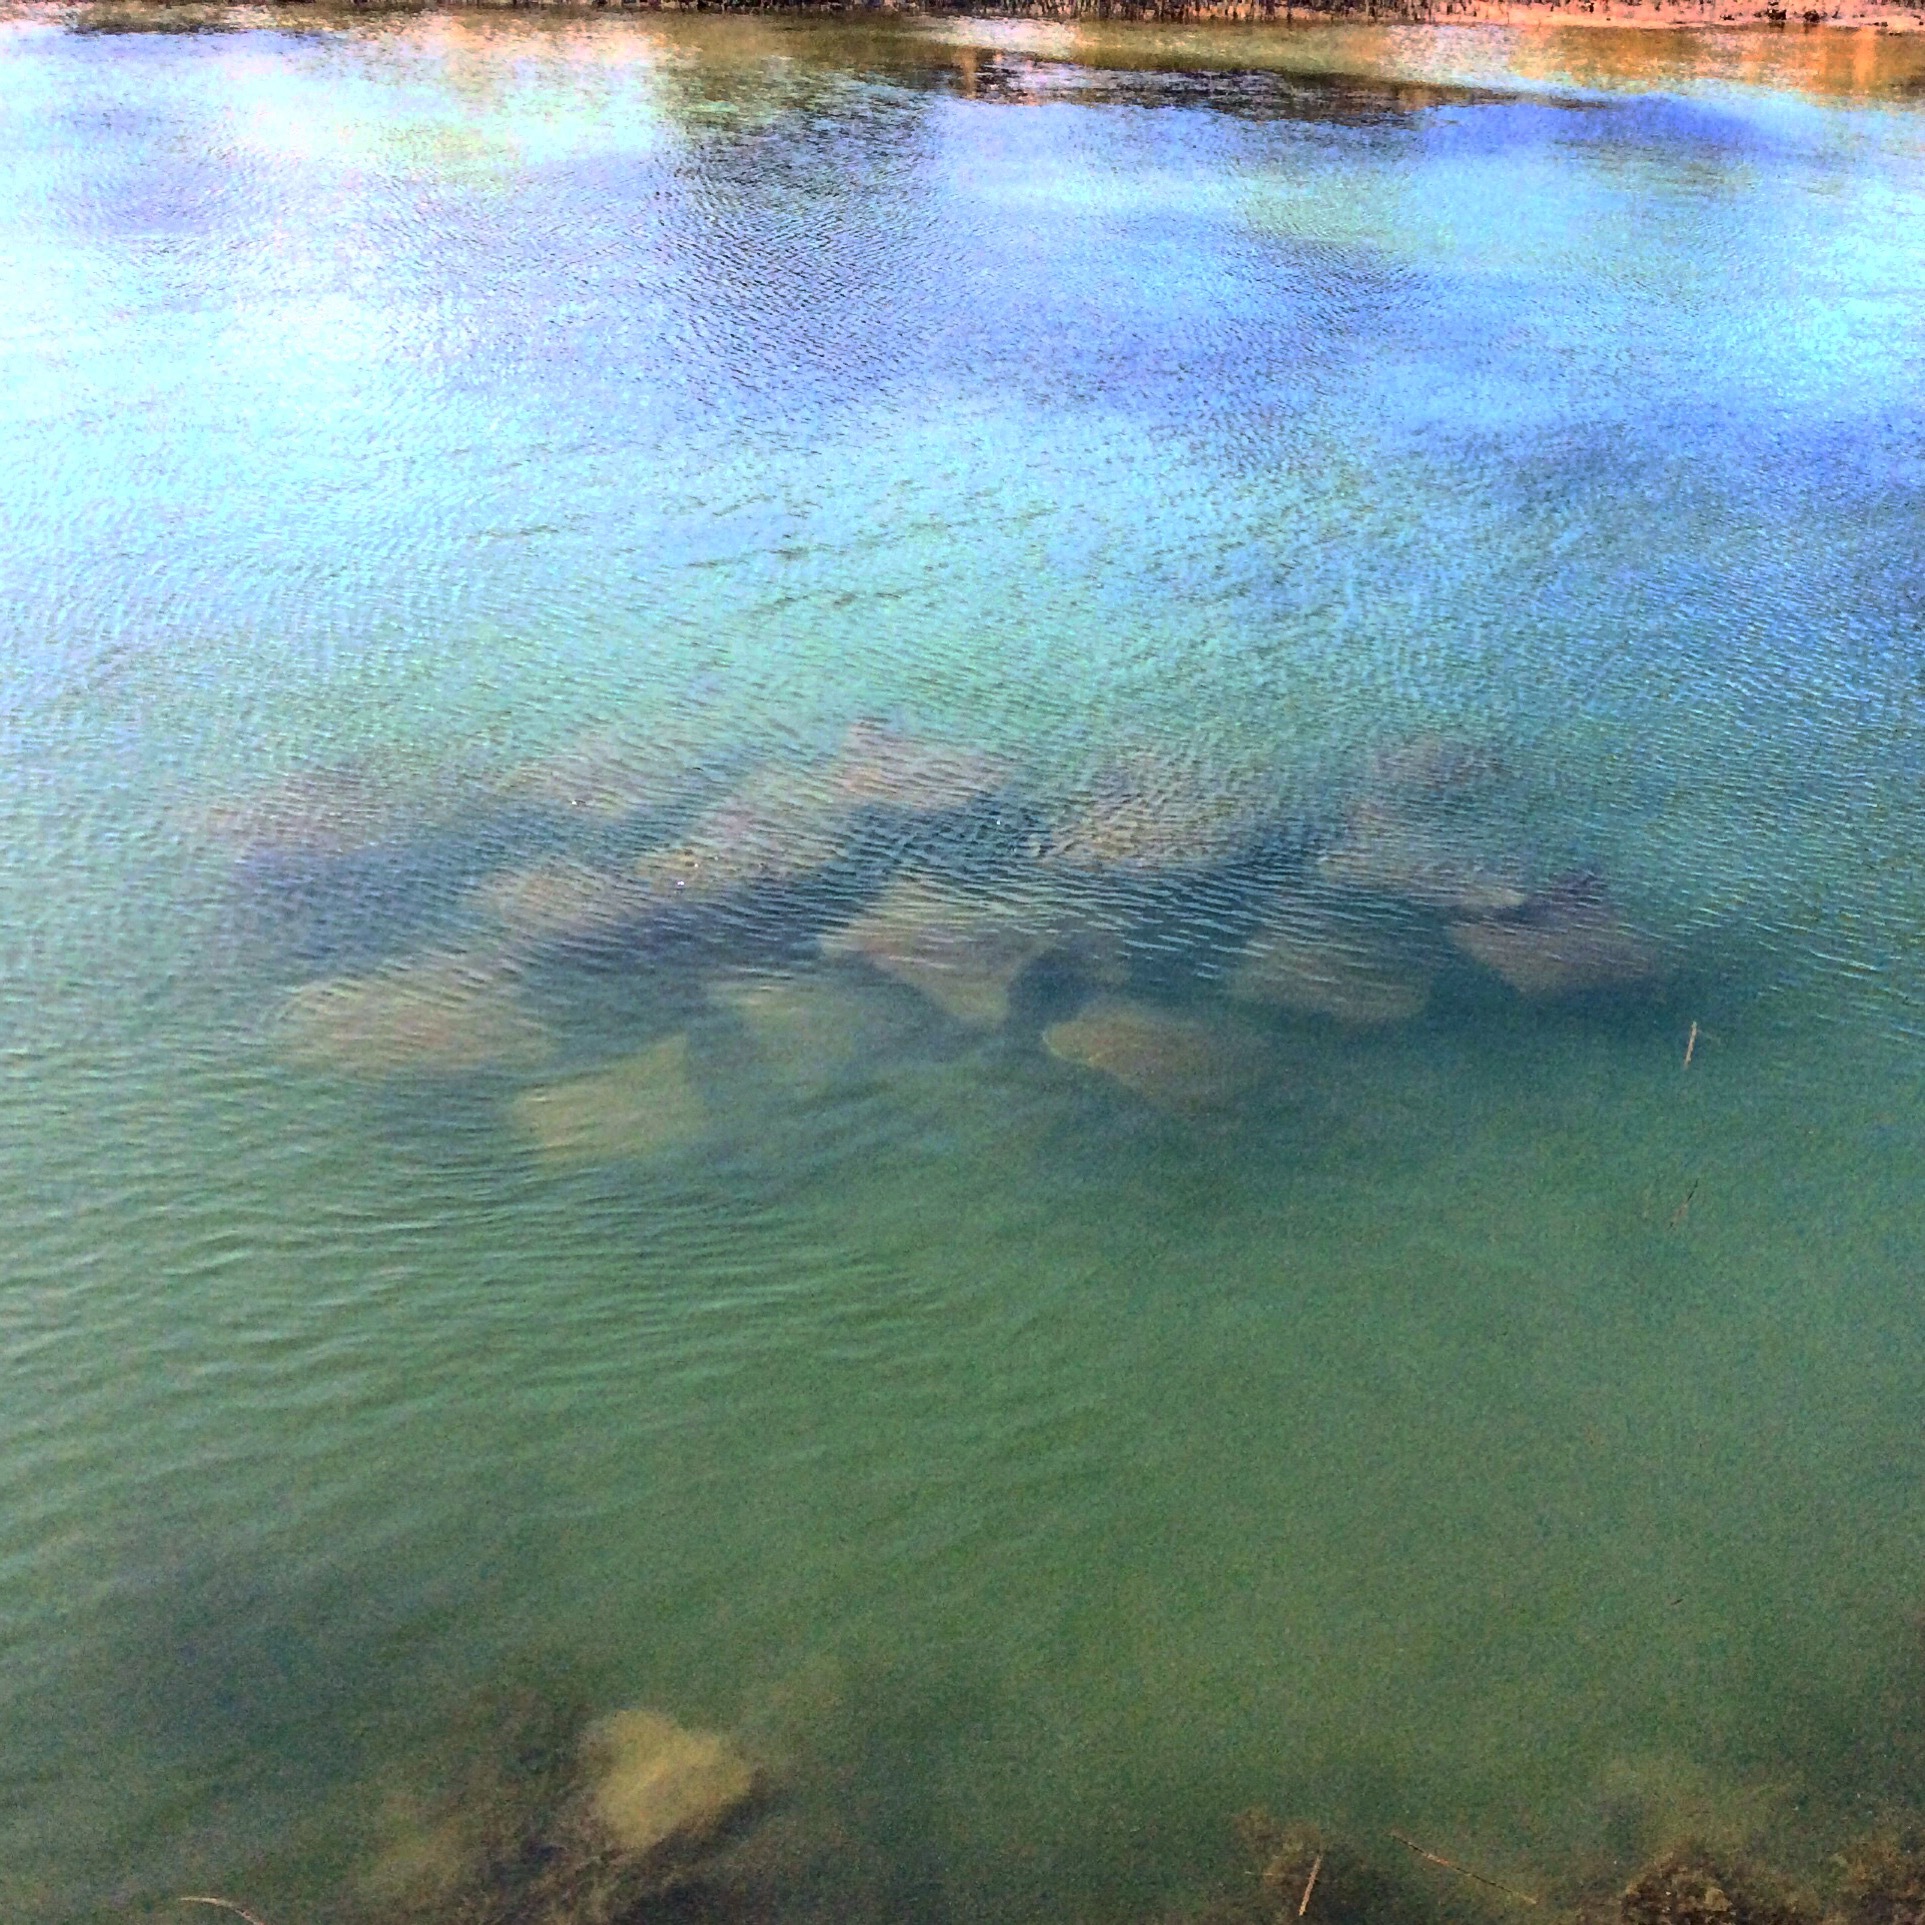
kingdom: Animalia
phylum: Chordata
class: Elasmobranchii
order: Myliobatiformes
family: Myliobatidae
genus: Rhinoptera
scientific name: Rhinoptera neglecta
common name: Australian cownose ray
